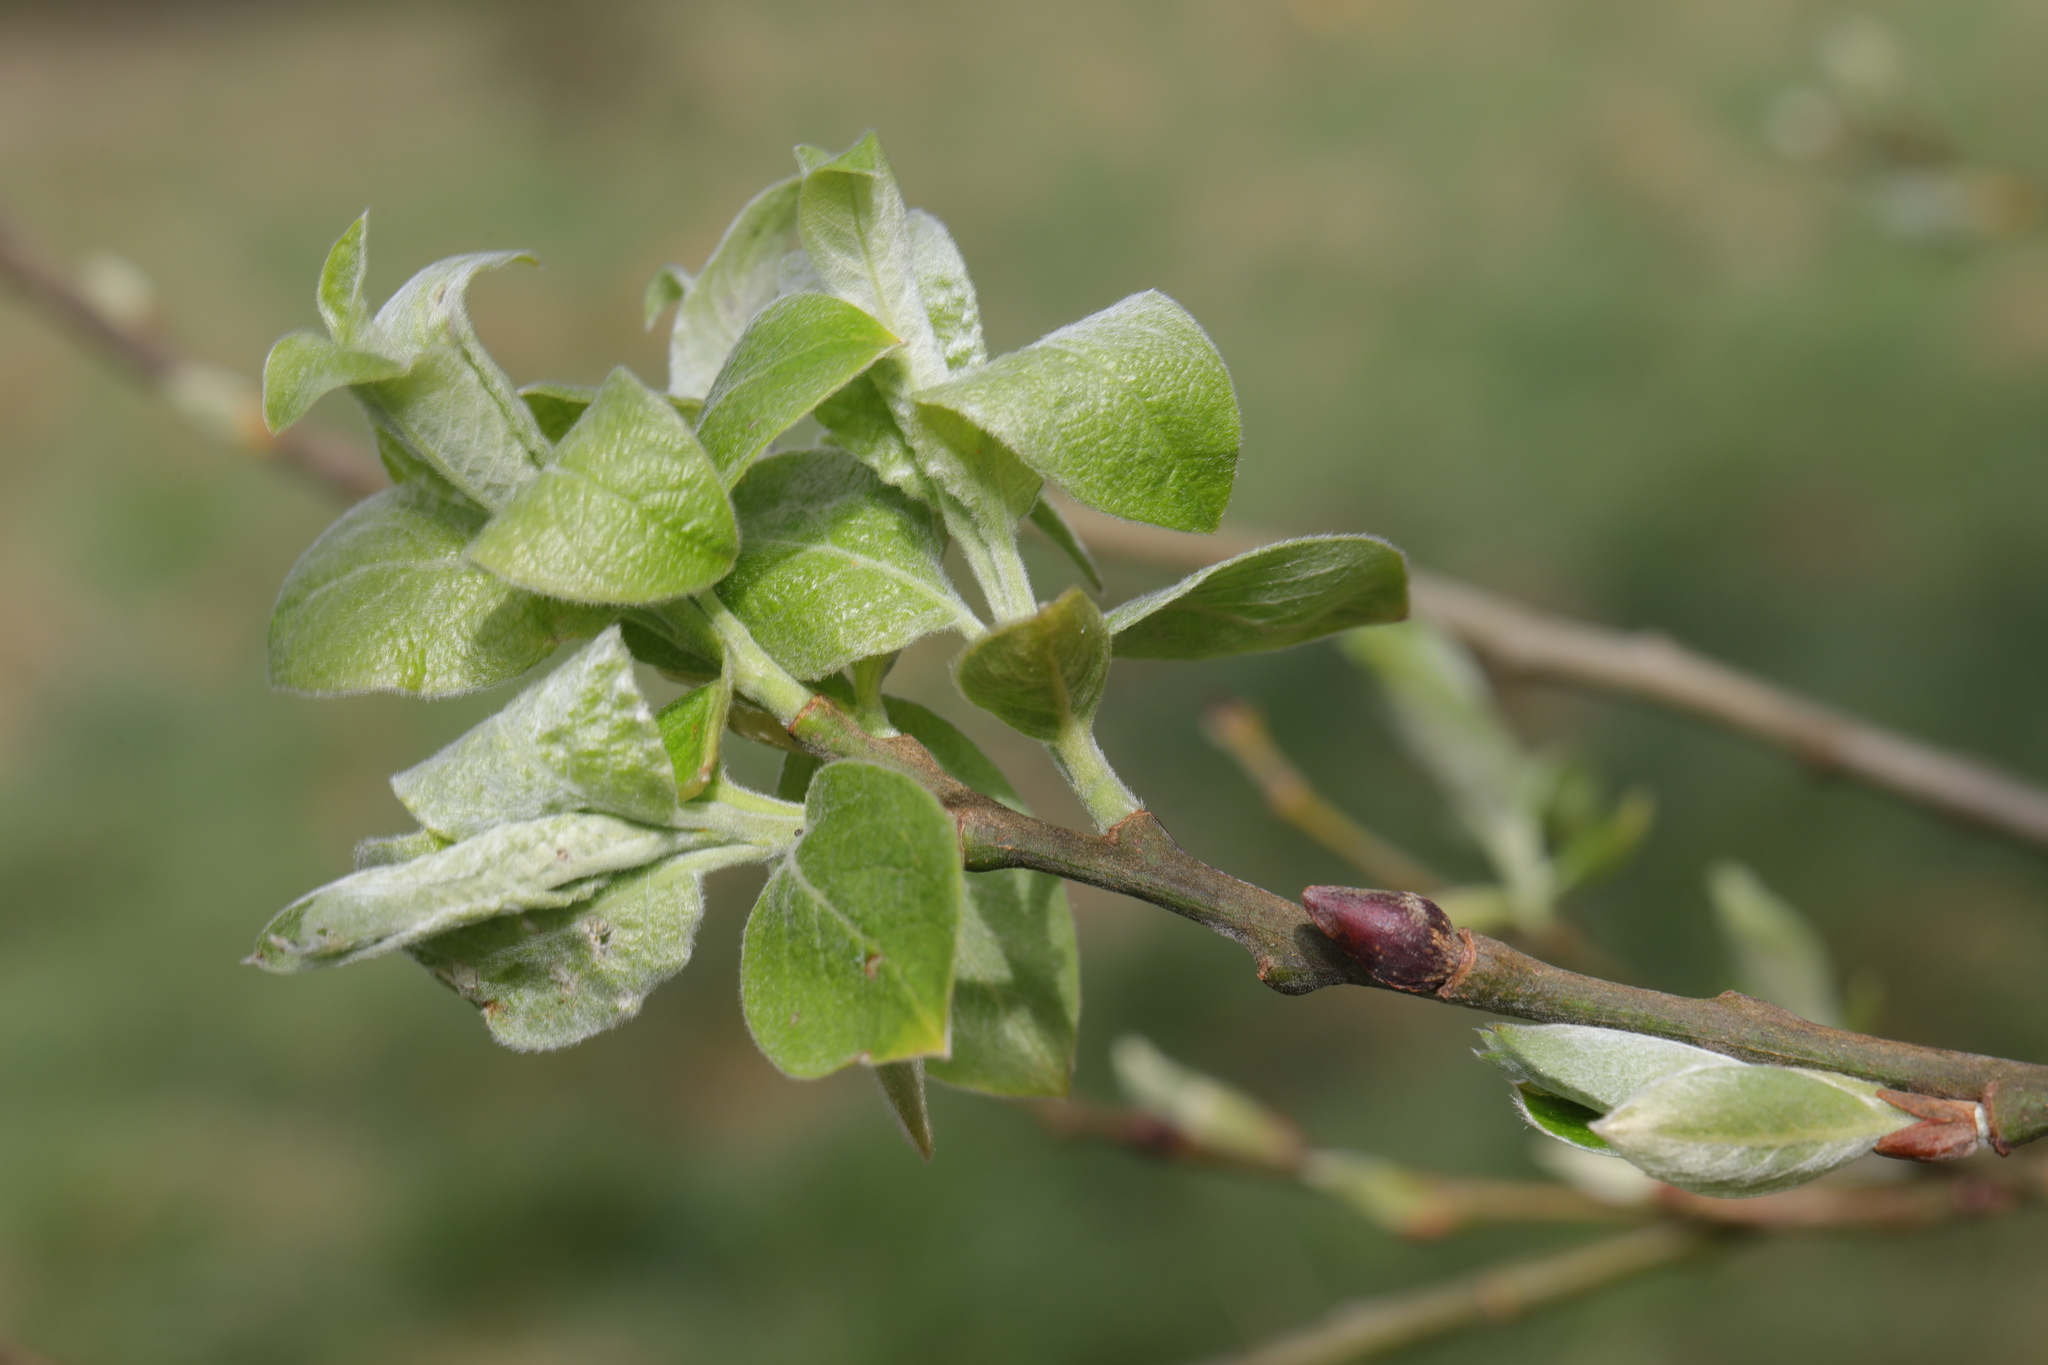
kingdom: Plantae
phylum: Tracheophyta
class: Magnoliopsida
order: Malpighiales
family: Salicaceae
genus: Salix
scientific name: Salix caprea
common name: Goat willow
